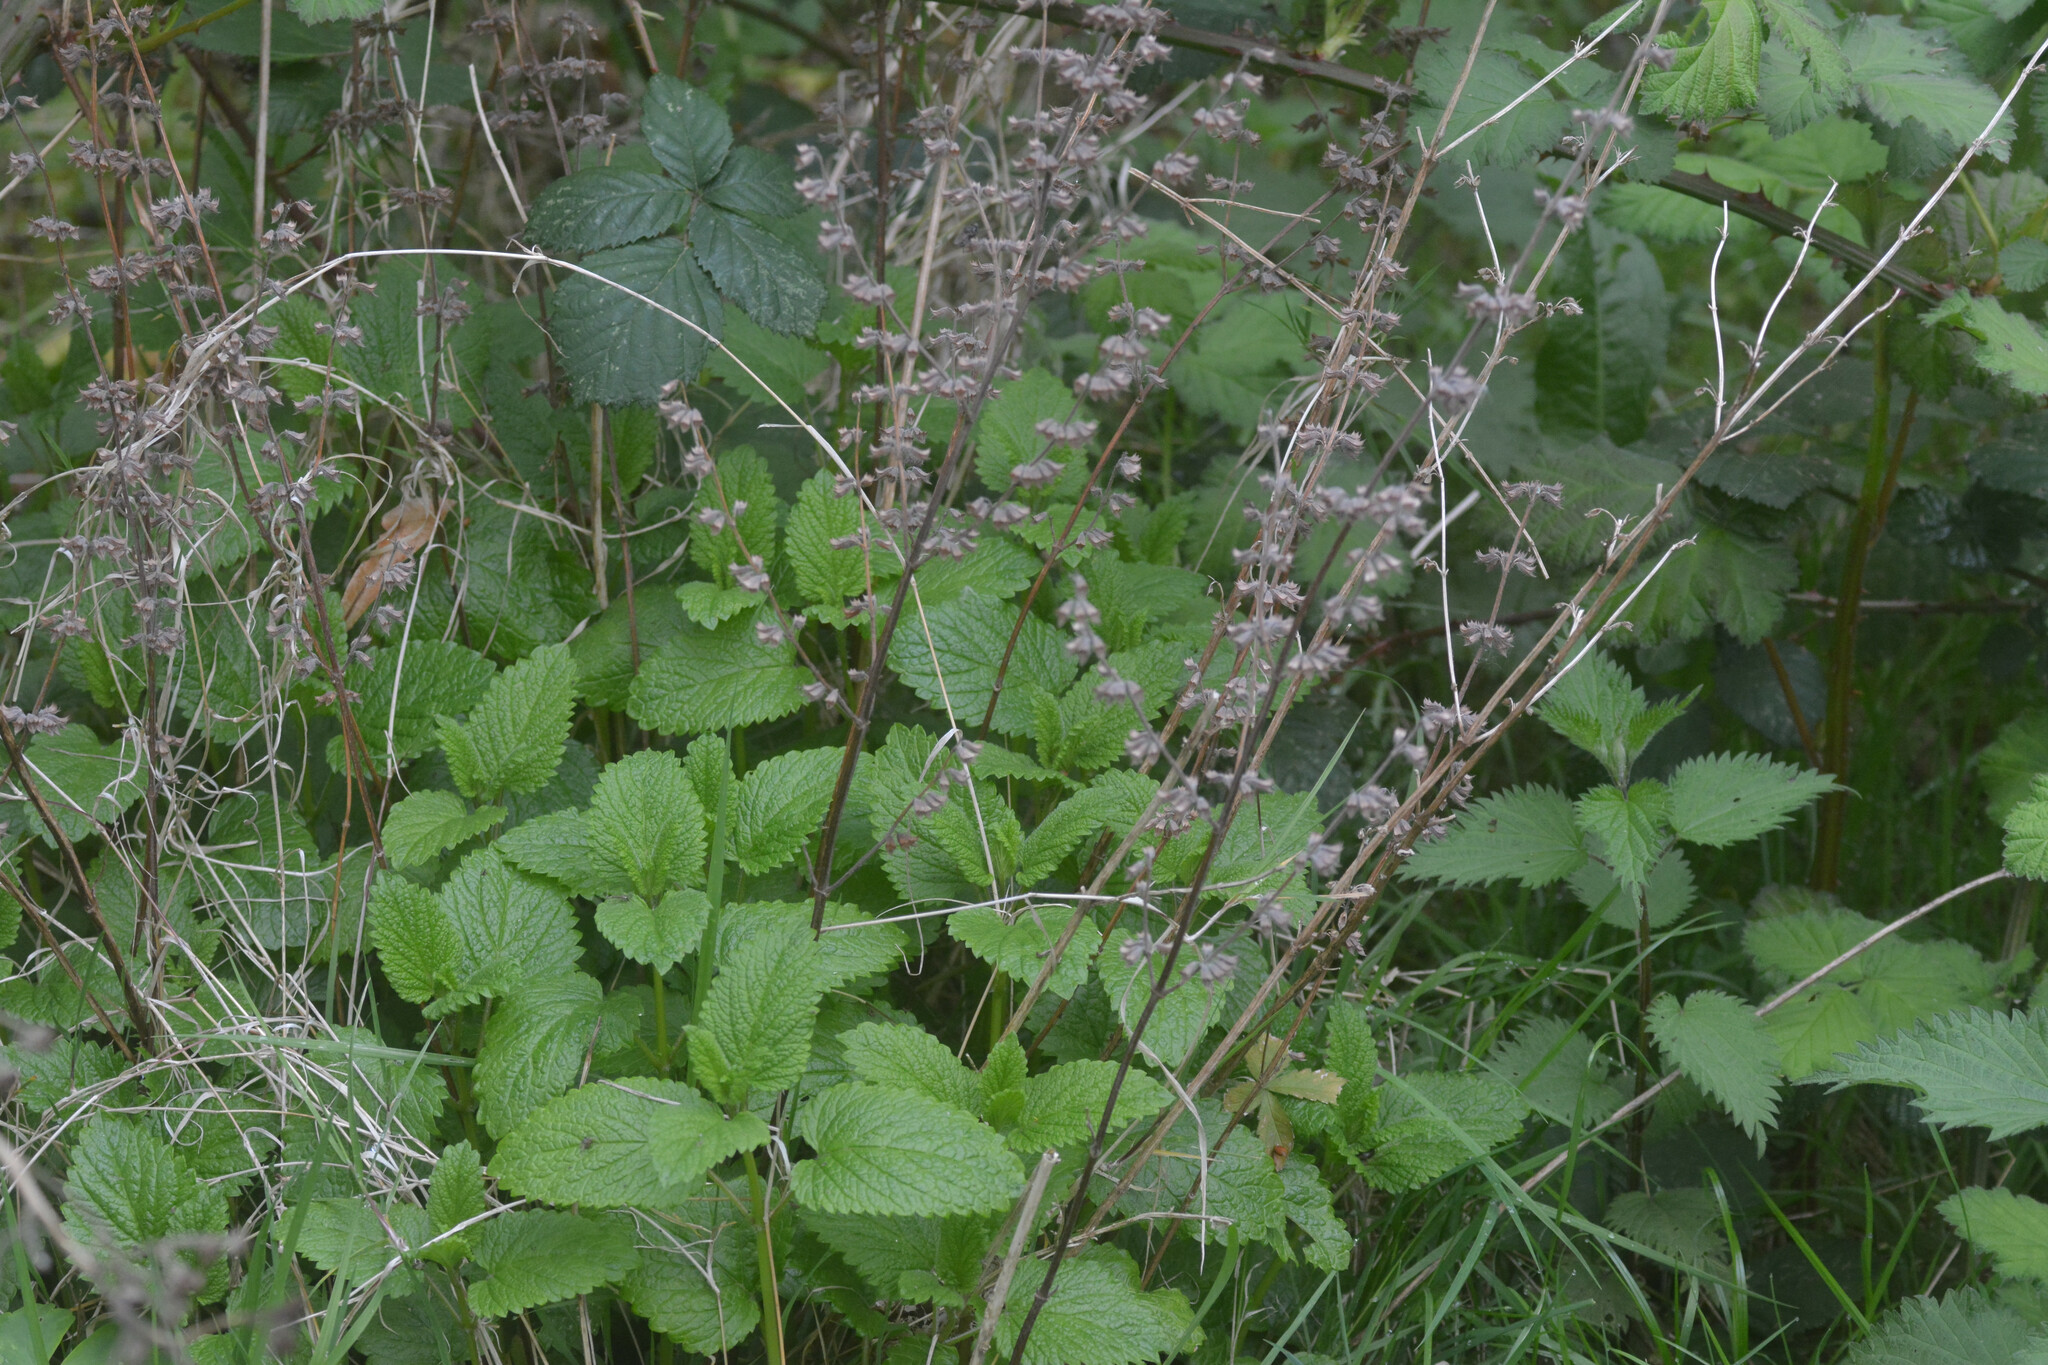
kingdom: Plantae
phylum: Tracheophyta
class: Magnoliopsida
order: Lamiales
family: Lamiaceae
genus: Melissa
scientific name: Melissa officinalis
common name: Balm
